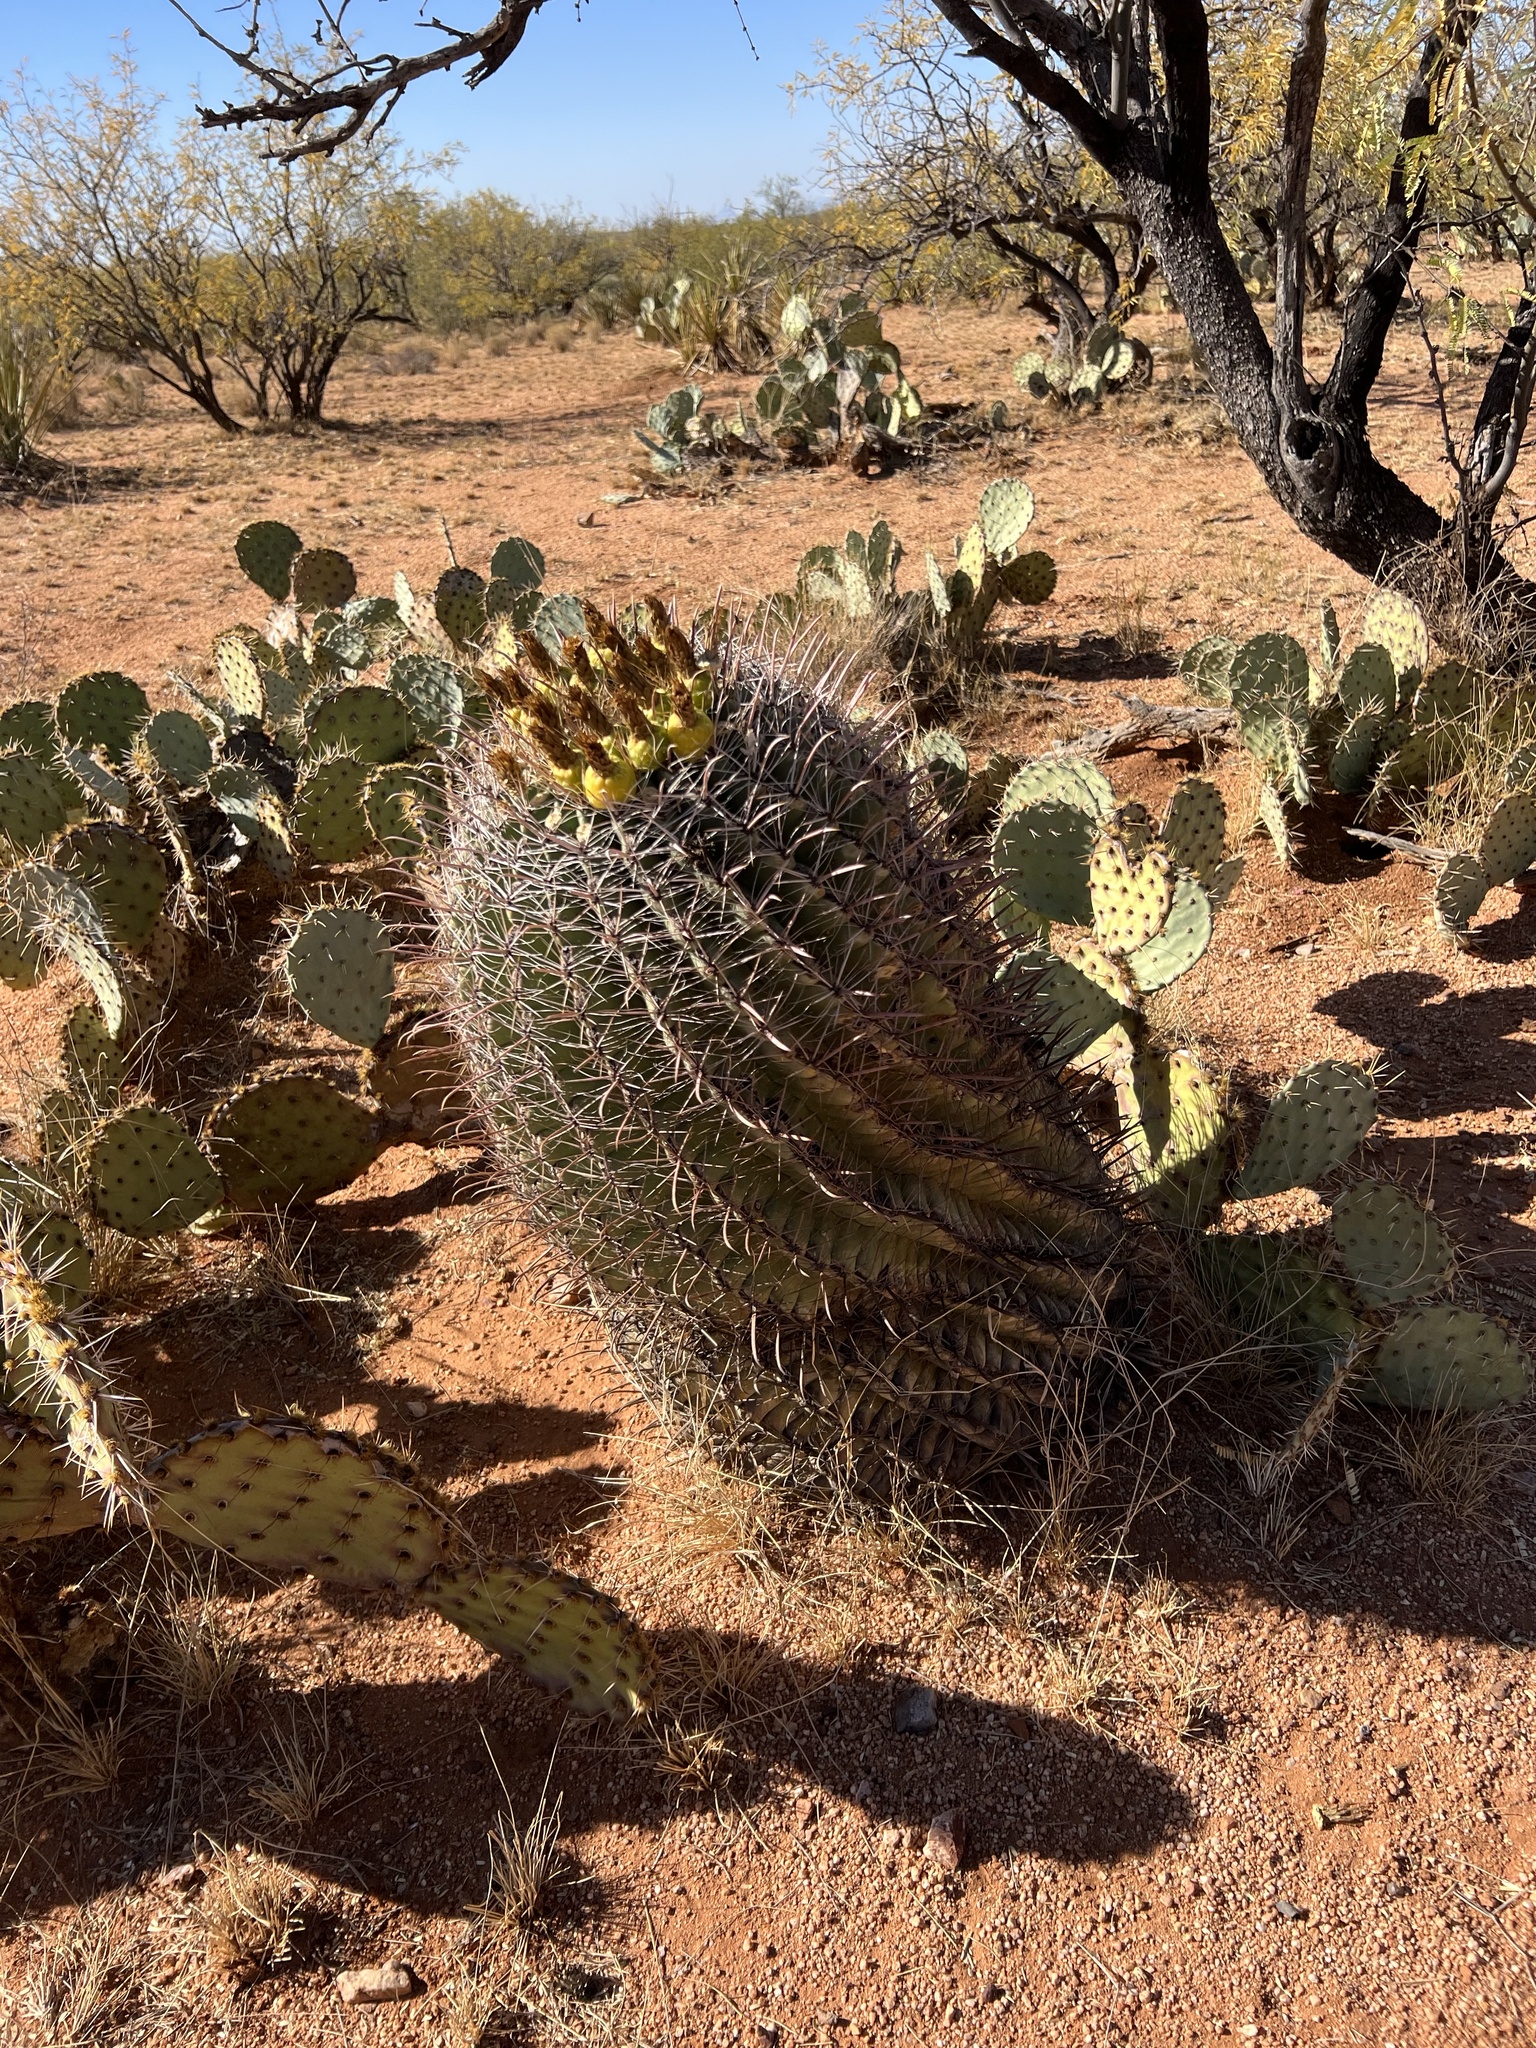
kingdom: Plantae
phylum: Tracheophyta
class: Magnoliopsida
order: Caryophyllales
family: Cactaceae
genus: Ferocactus
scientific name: Ferocactus wislizeni
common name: Candy barrel cactus
